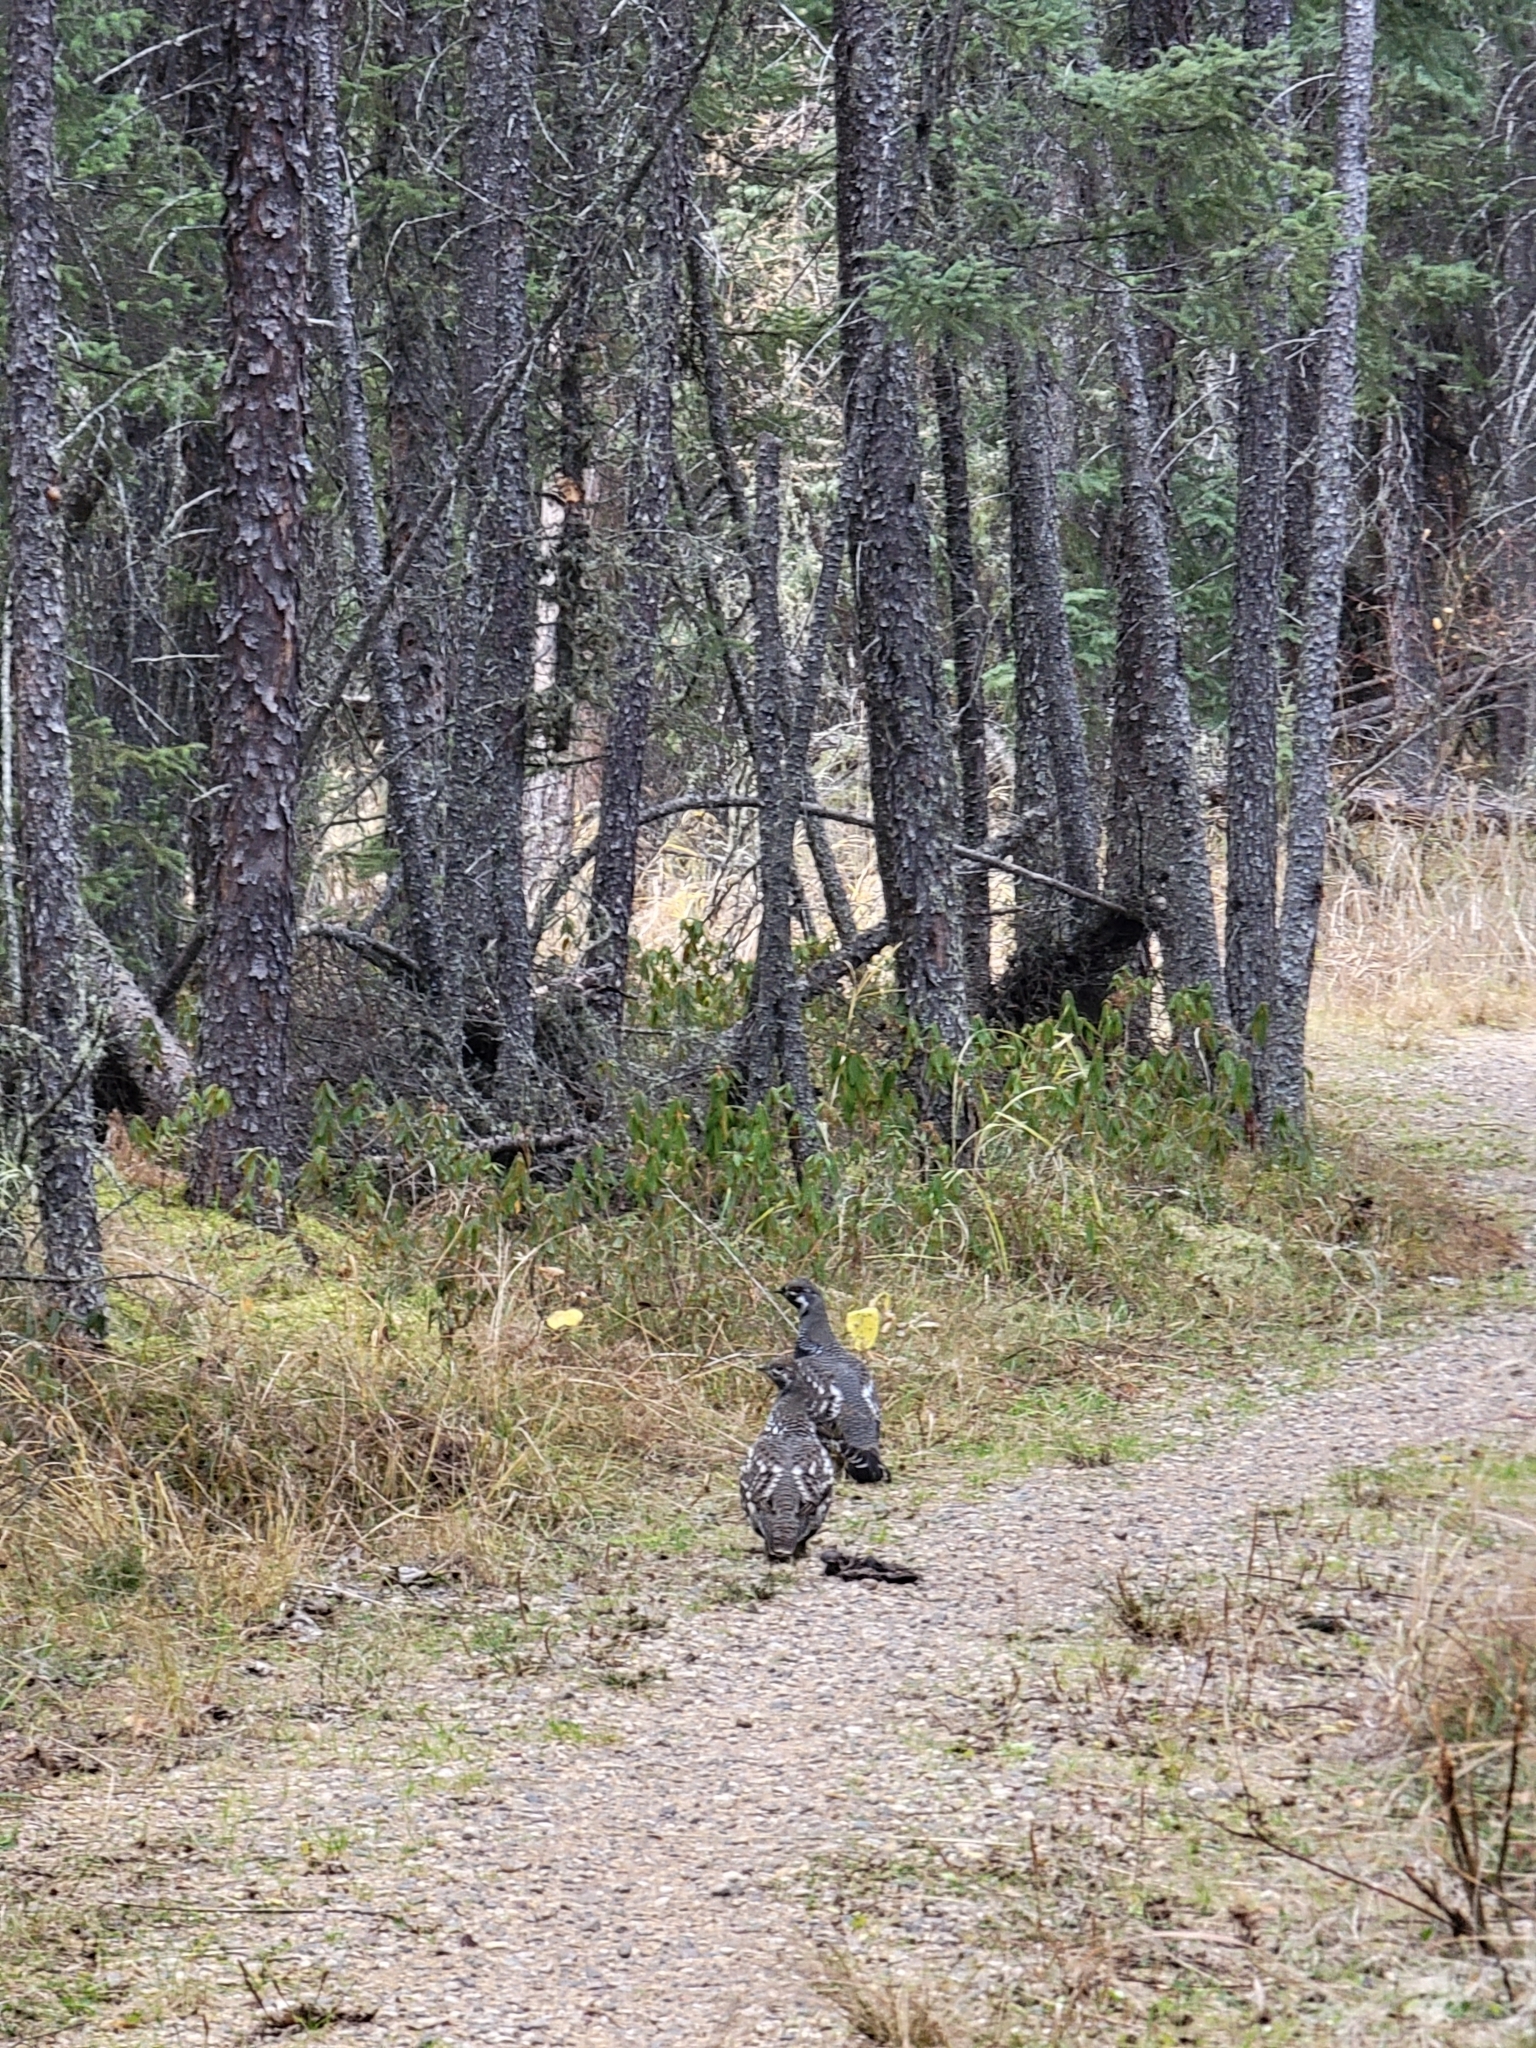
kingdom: Animalia
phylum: Chordata
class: Aves
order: Galliformes
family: Phasianidae
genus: Canachites
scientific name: Canachites canadensis
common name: Spruce grouse
